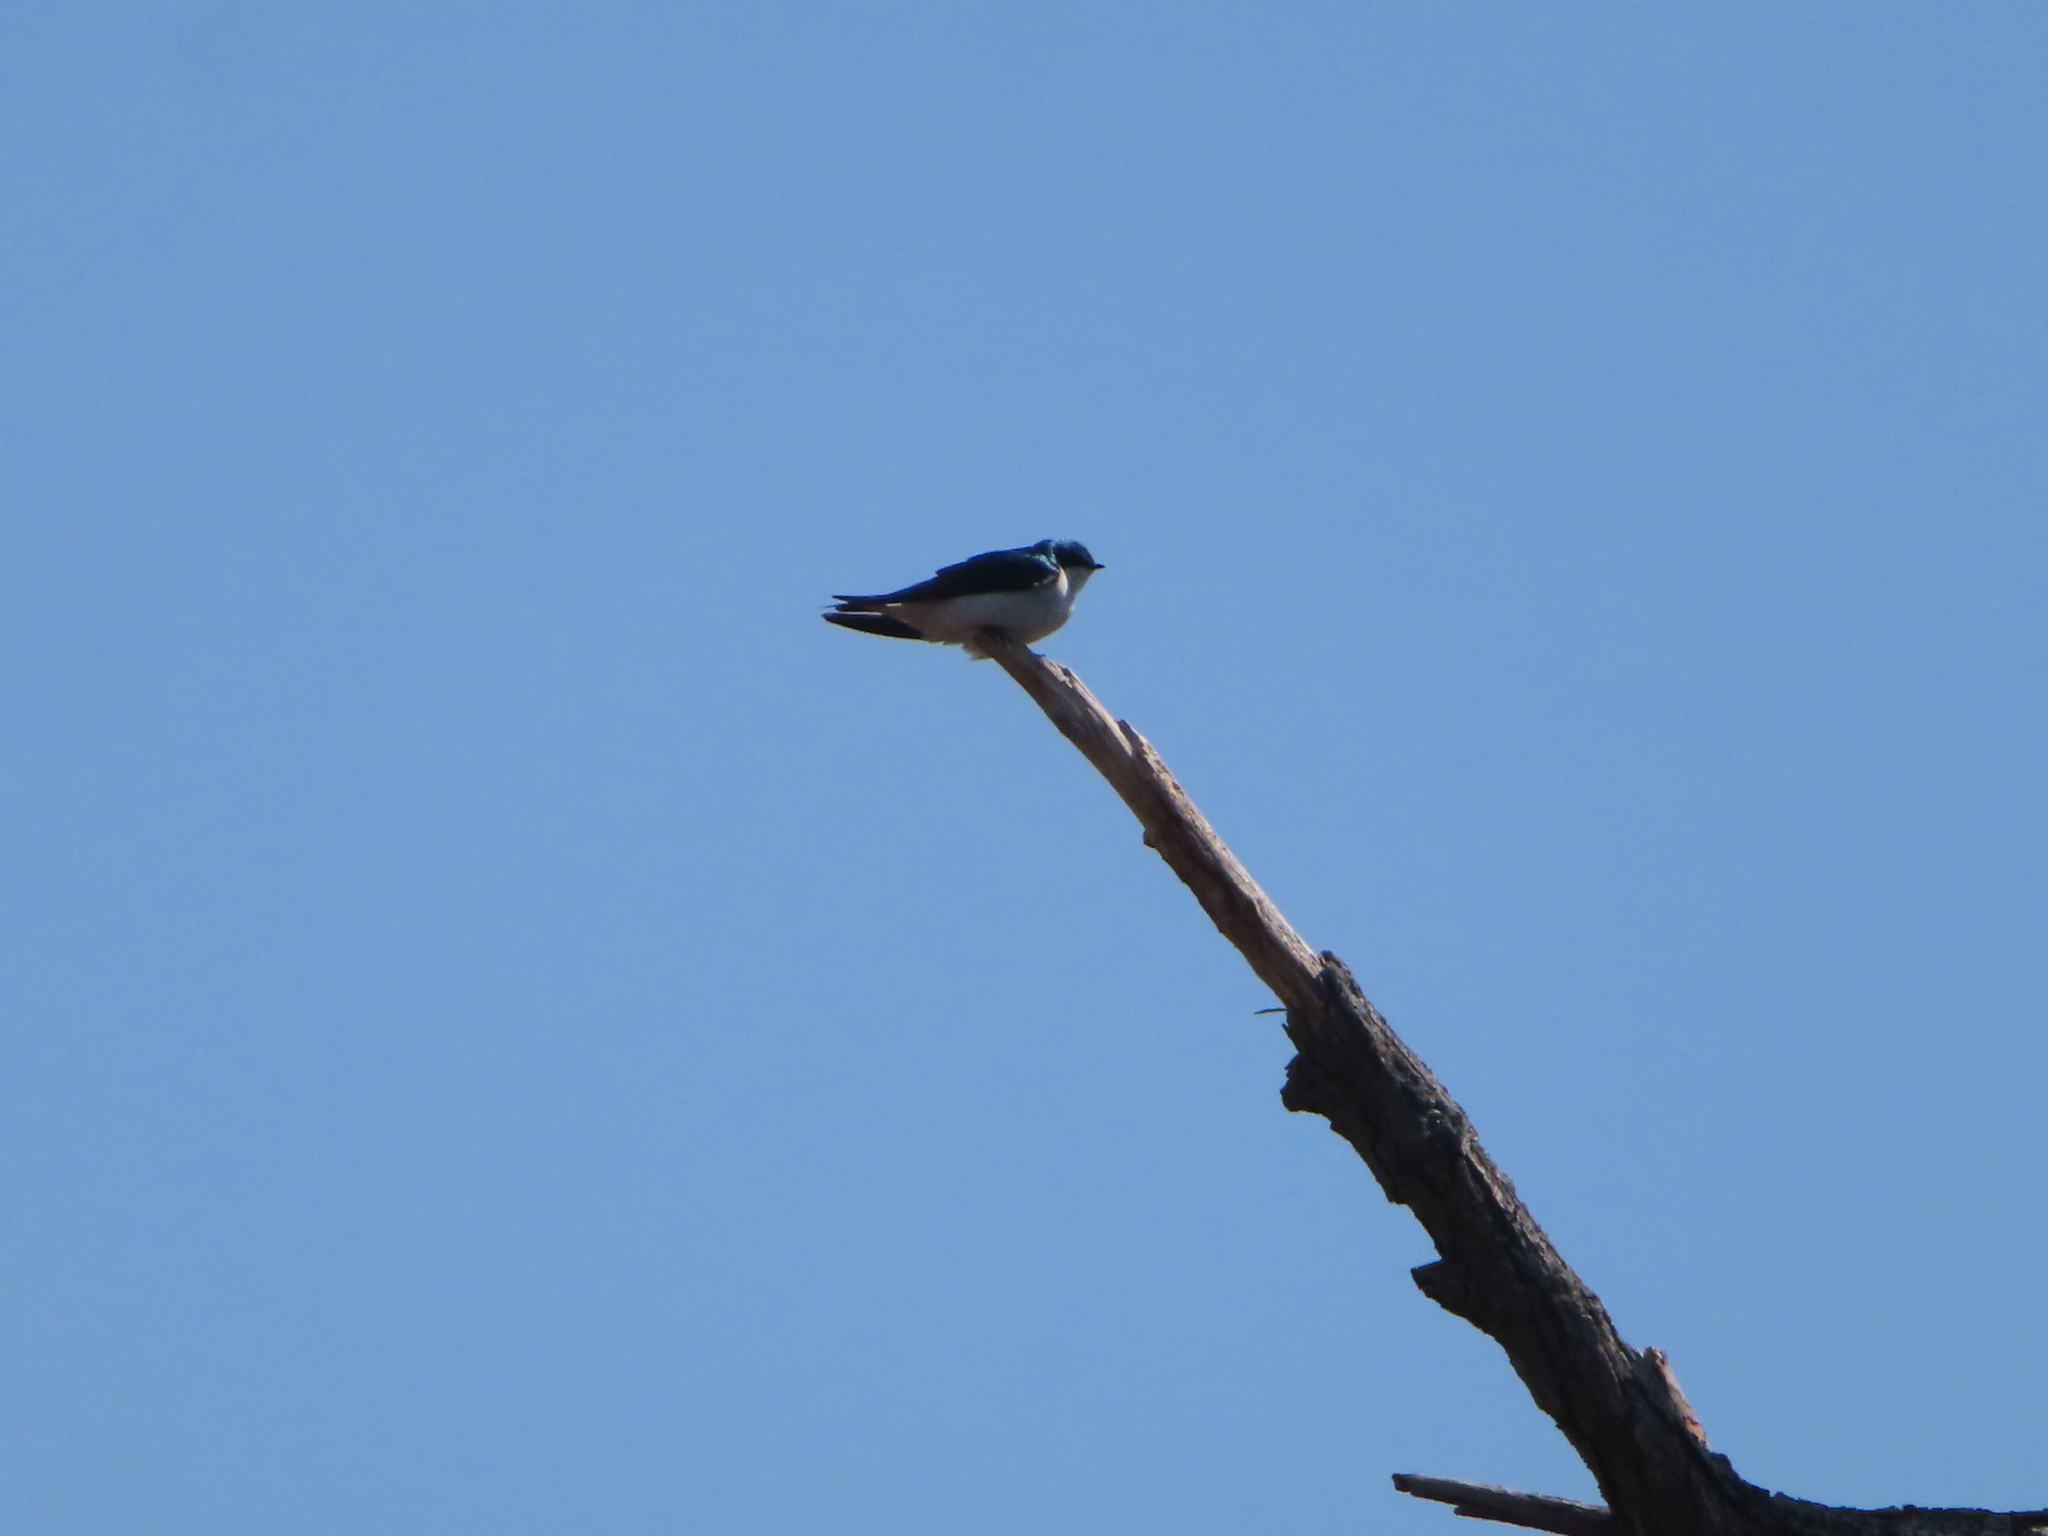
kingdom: Animalia
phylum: Chordata
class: Aves
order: Passeriformes
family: Hirundinidae
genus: Tachycineta
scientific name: Tachycineta bicolor
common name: Tree swallow
